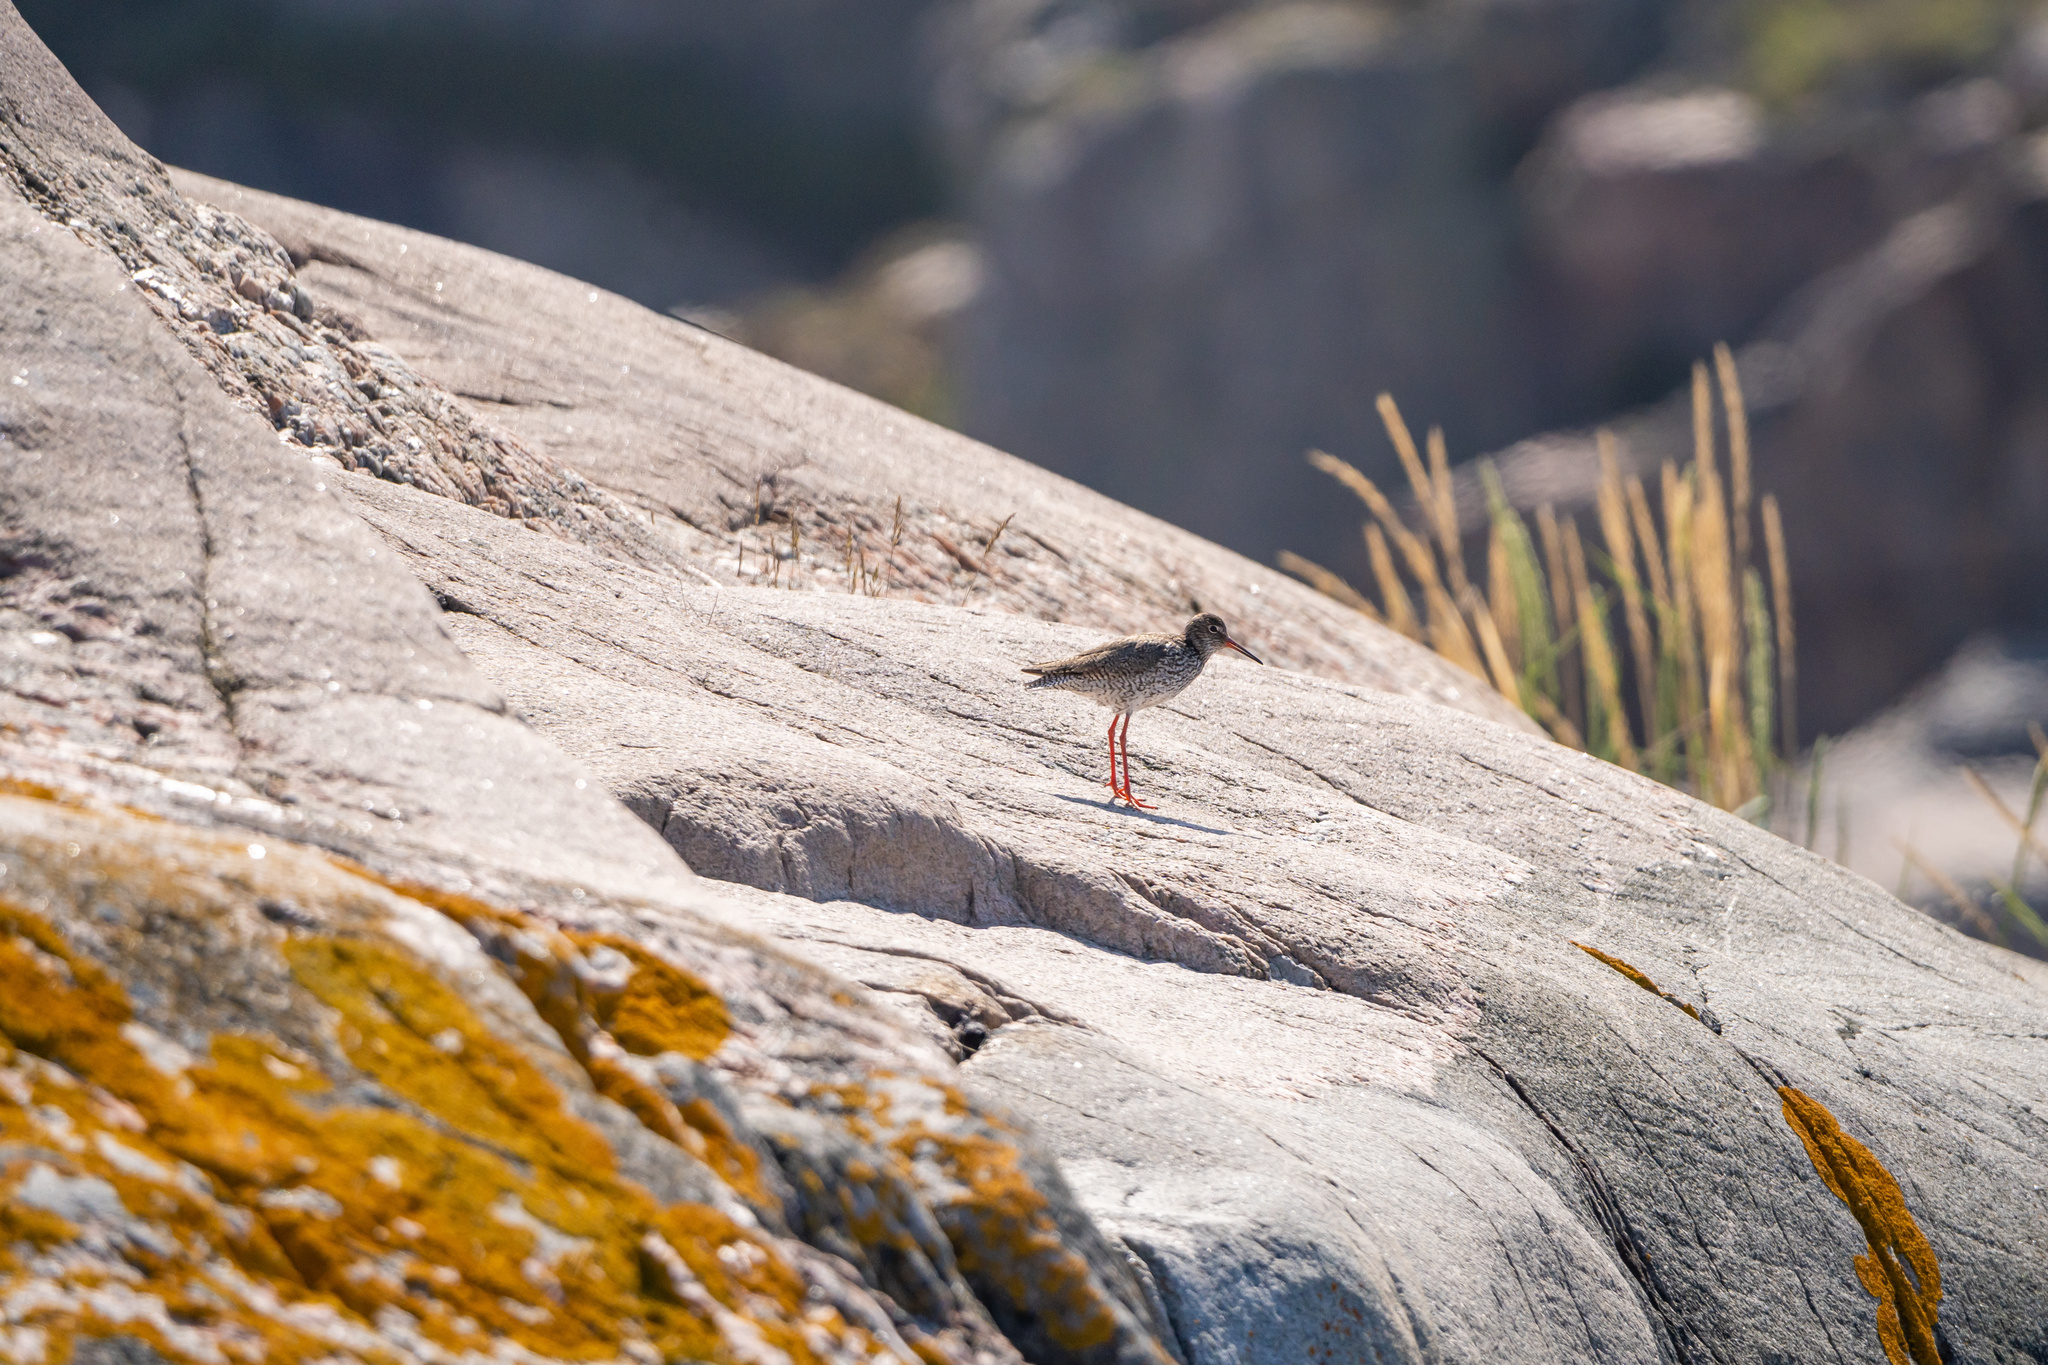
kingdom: Animalia
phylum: Chordata
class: Aves
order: Charadriiformes
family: Scolopacidae
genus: Tringa
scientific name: Tringa totanus
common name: Common redshank
